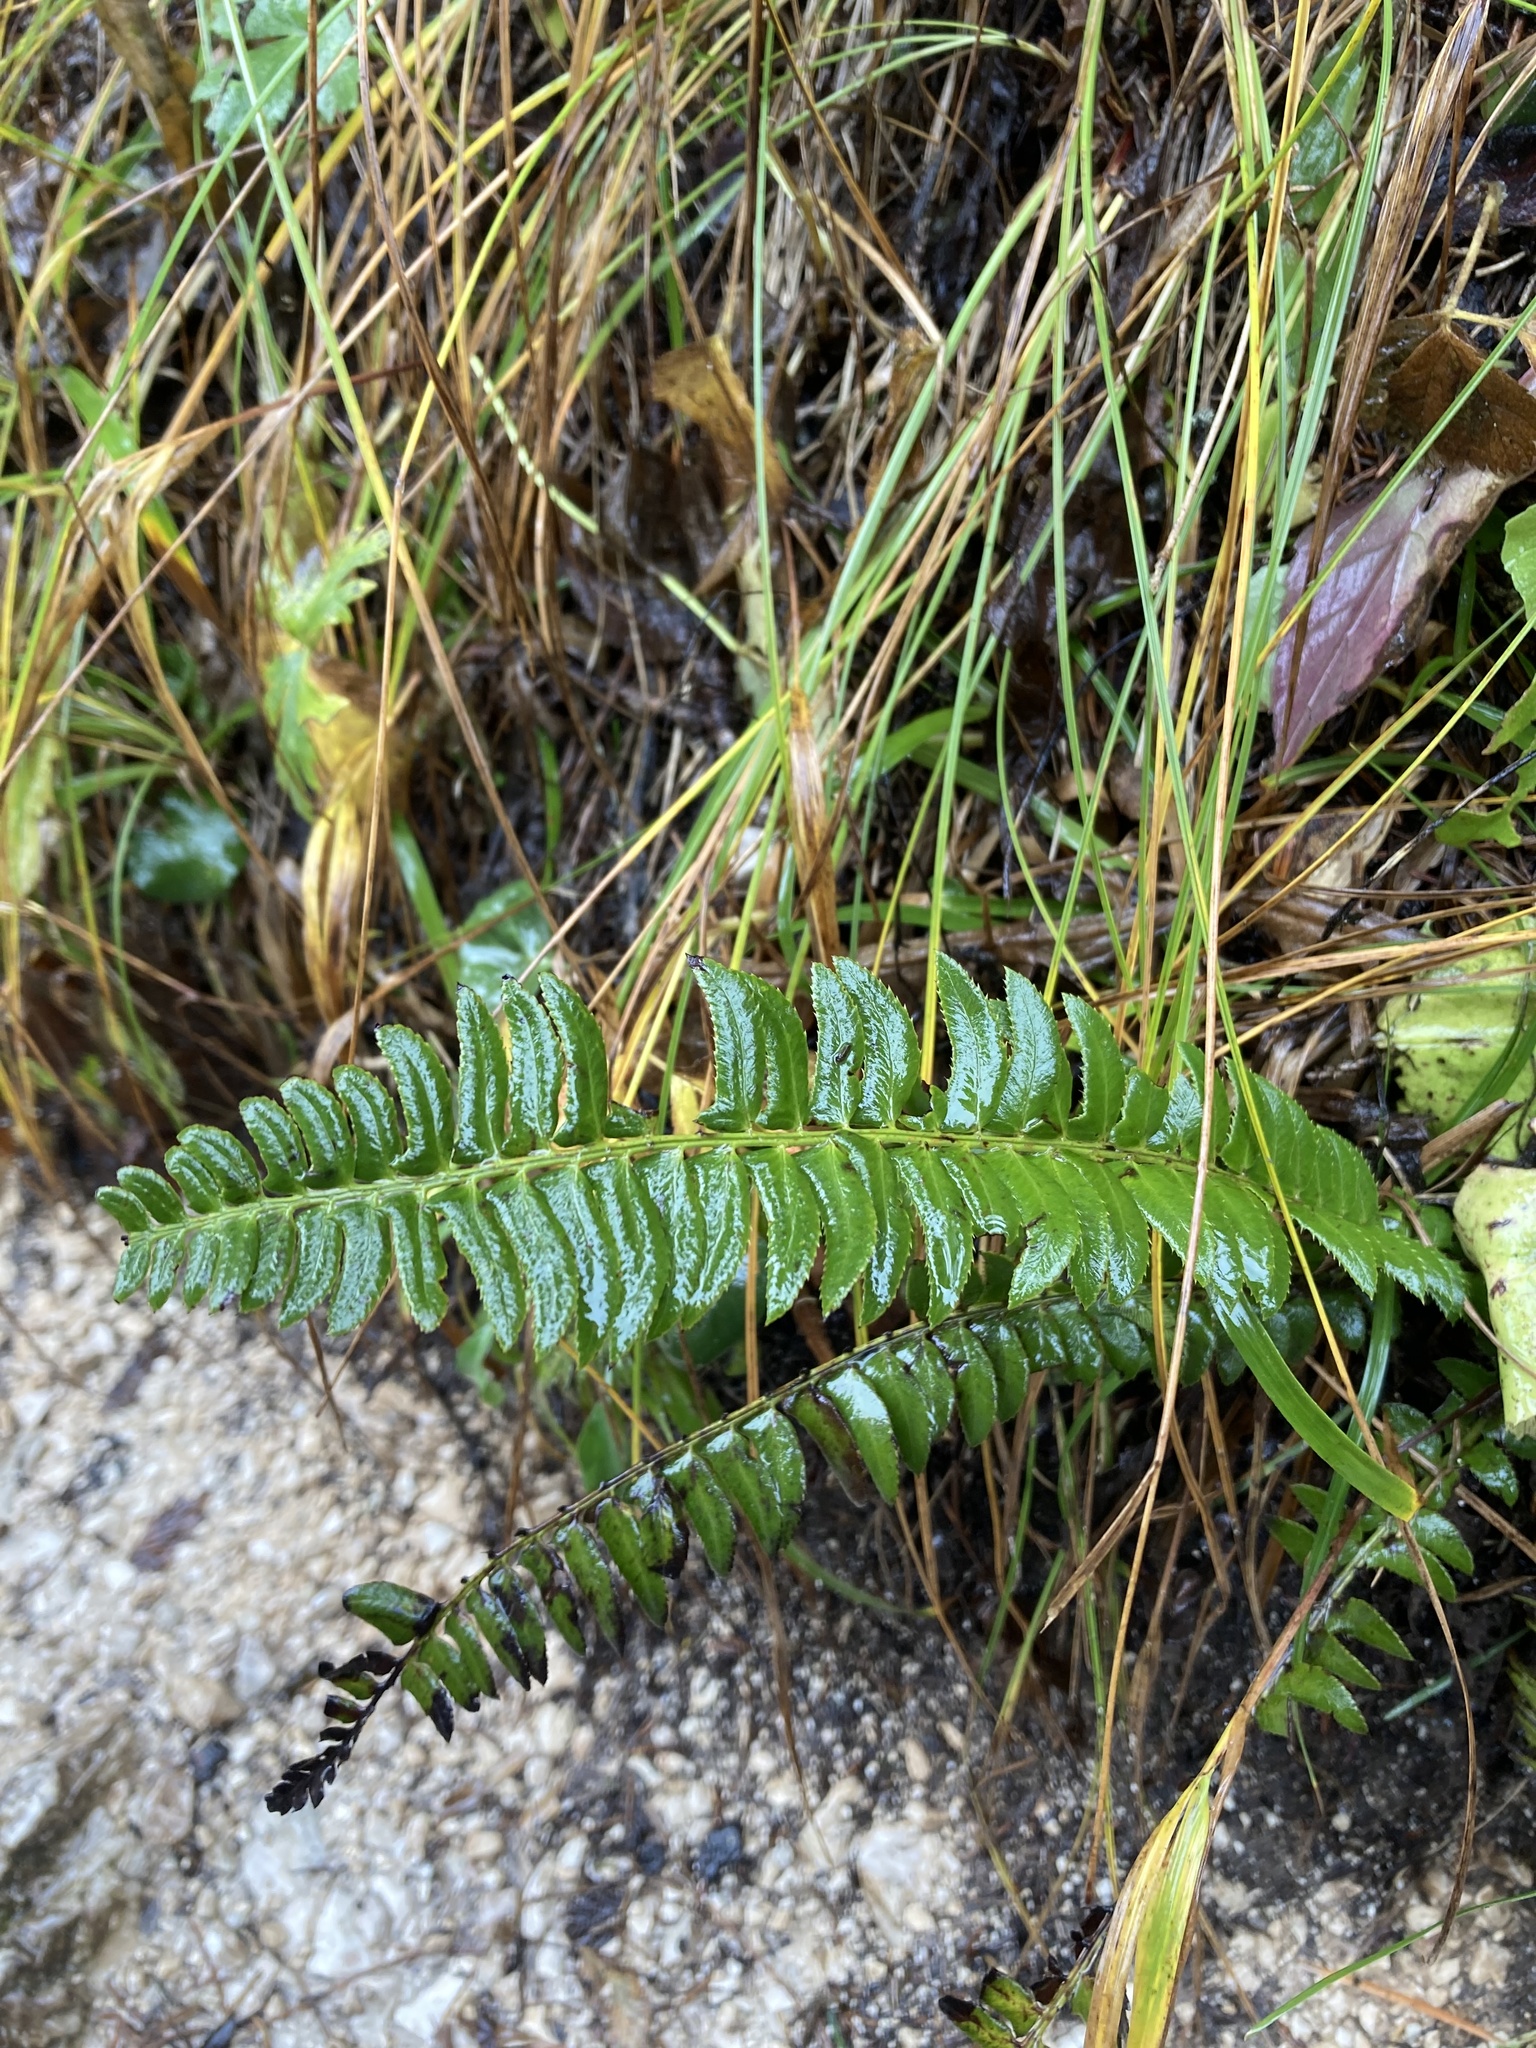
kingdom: Plantae
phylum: Tracheophyta
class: Polypodiopsida
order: Polypodiales
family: Dryopteridaceae
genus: Polystichum
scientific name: Polystichum lonchitis
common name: Holly fern
